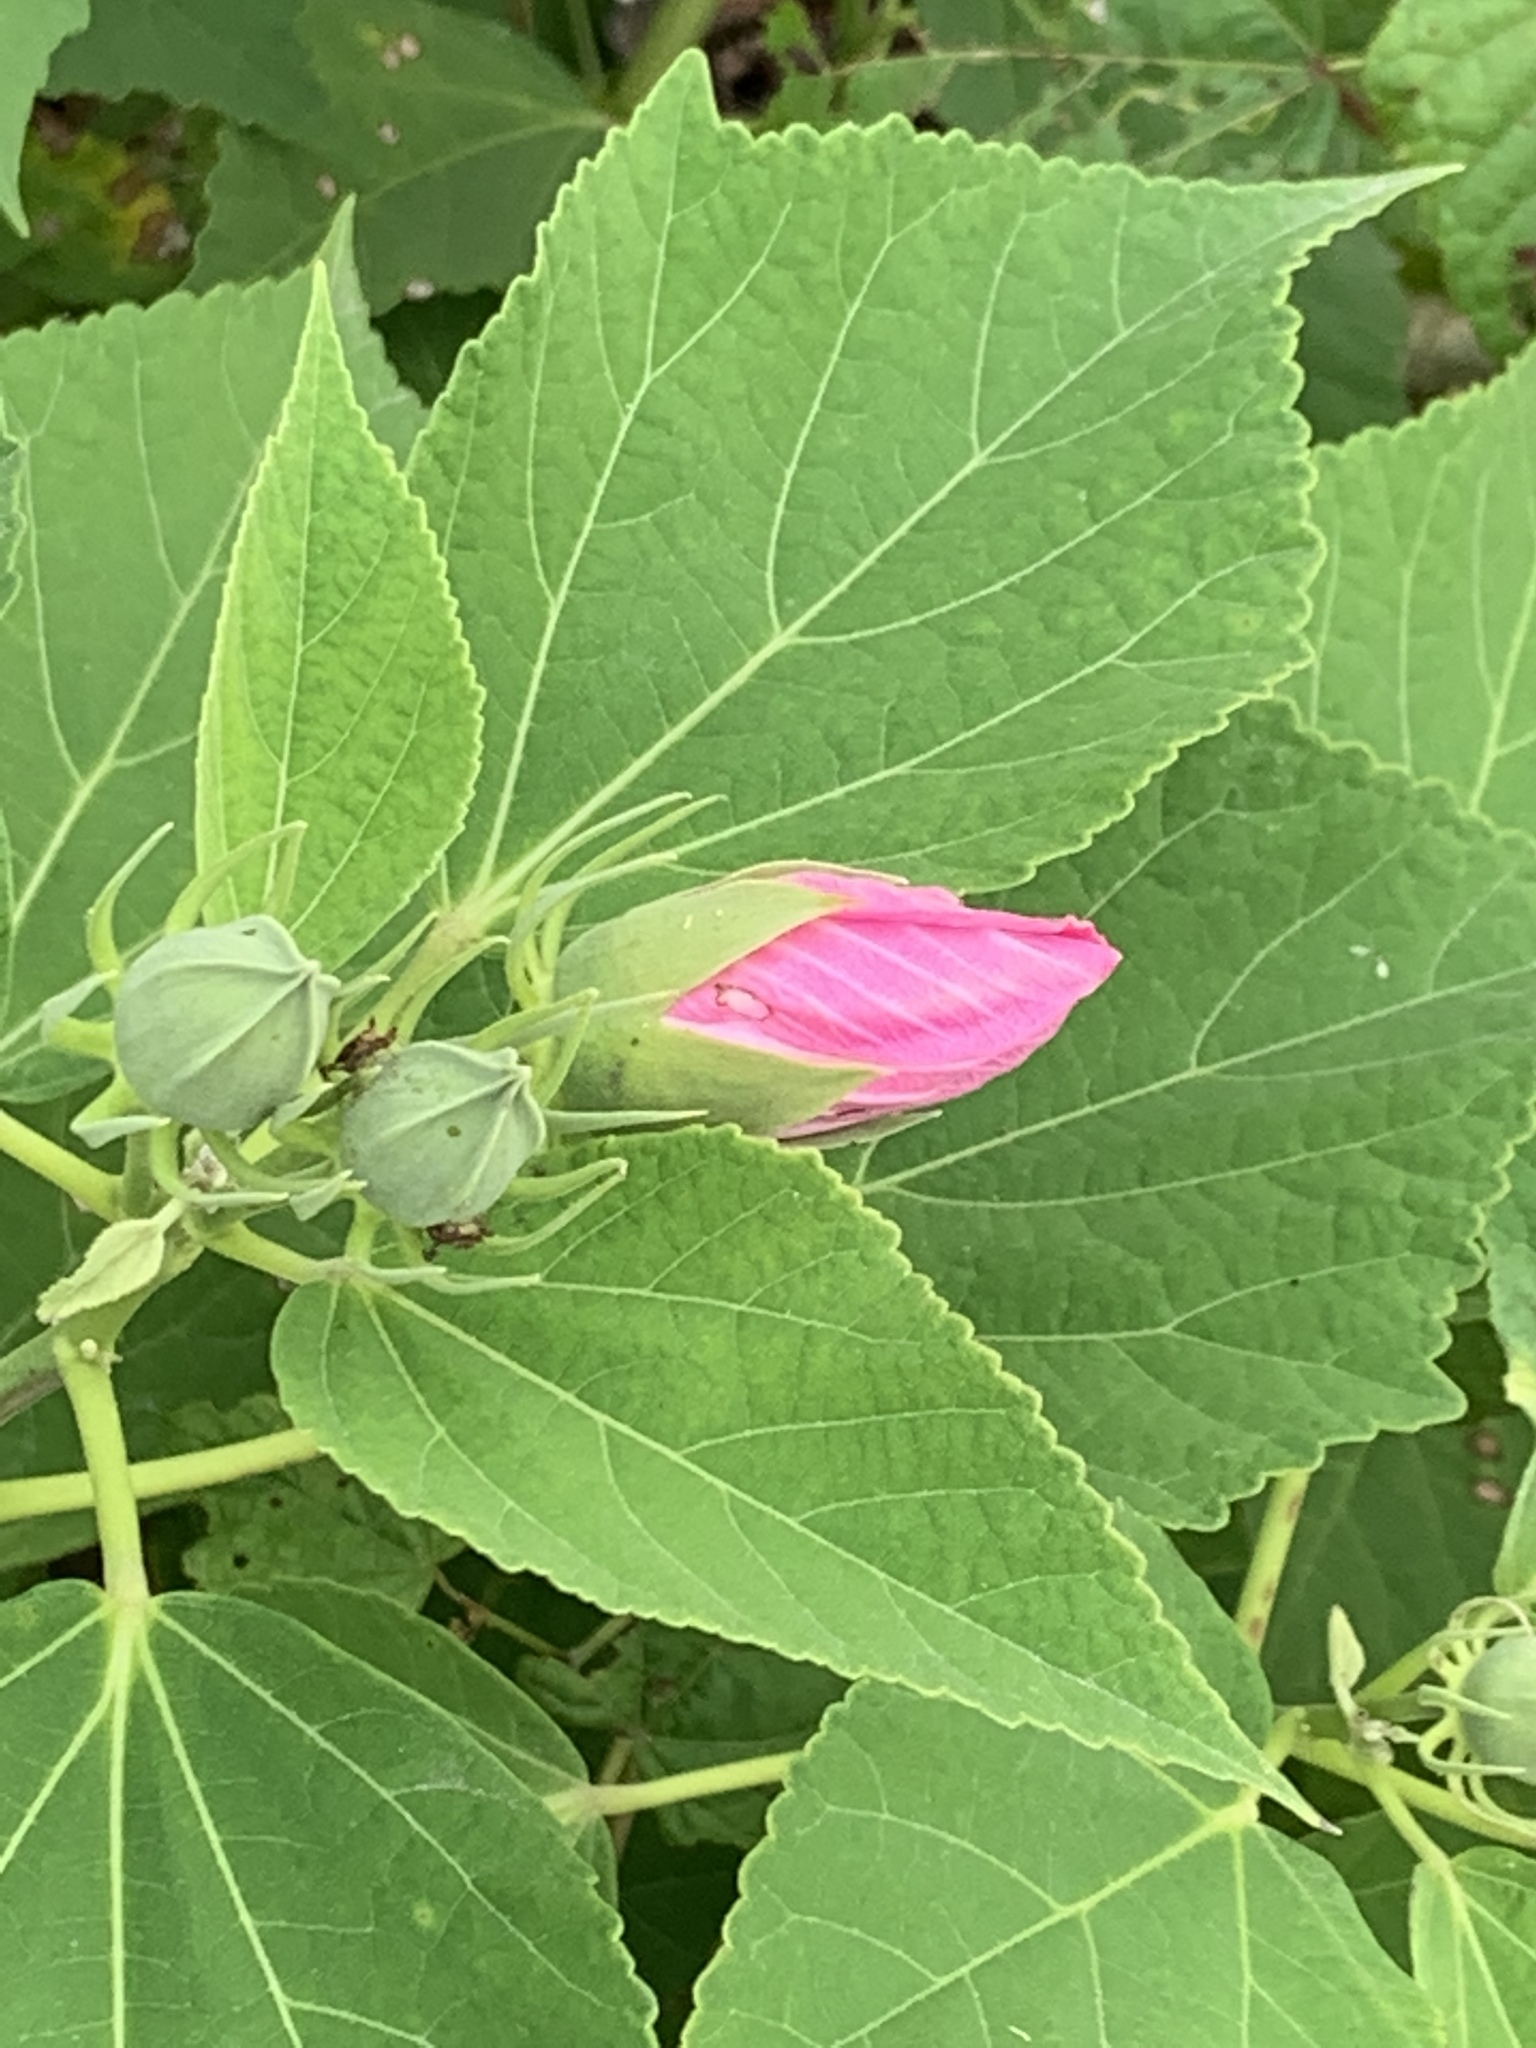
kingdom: Plantae
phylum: Tracheophyta
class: Magnoliopsida
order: Malvales
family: Malvaceae
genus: Hibiscus
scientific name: Hibiscus moscheutos
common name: Common rose-mallow
